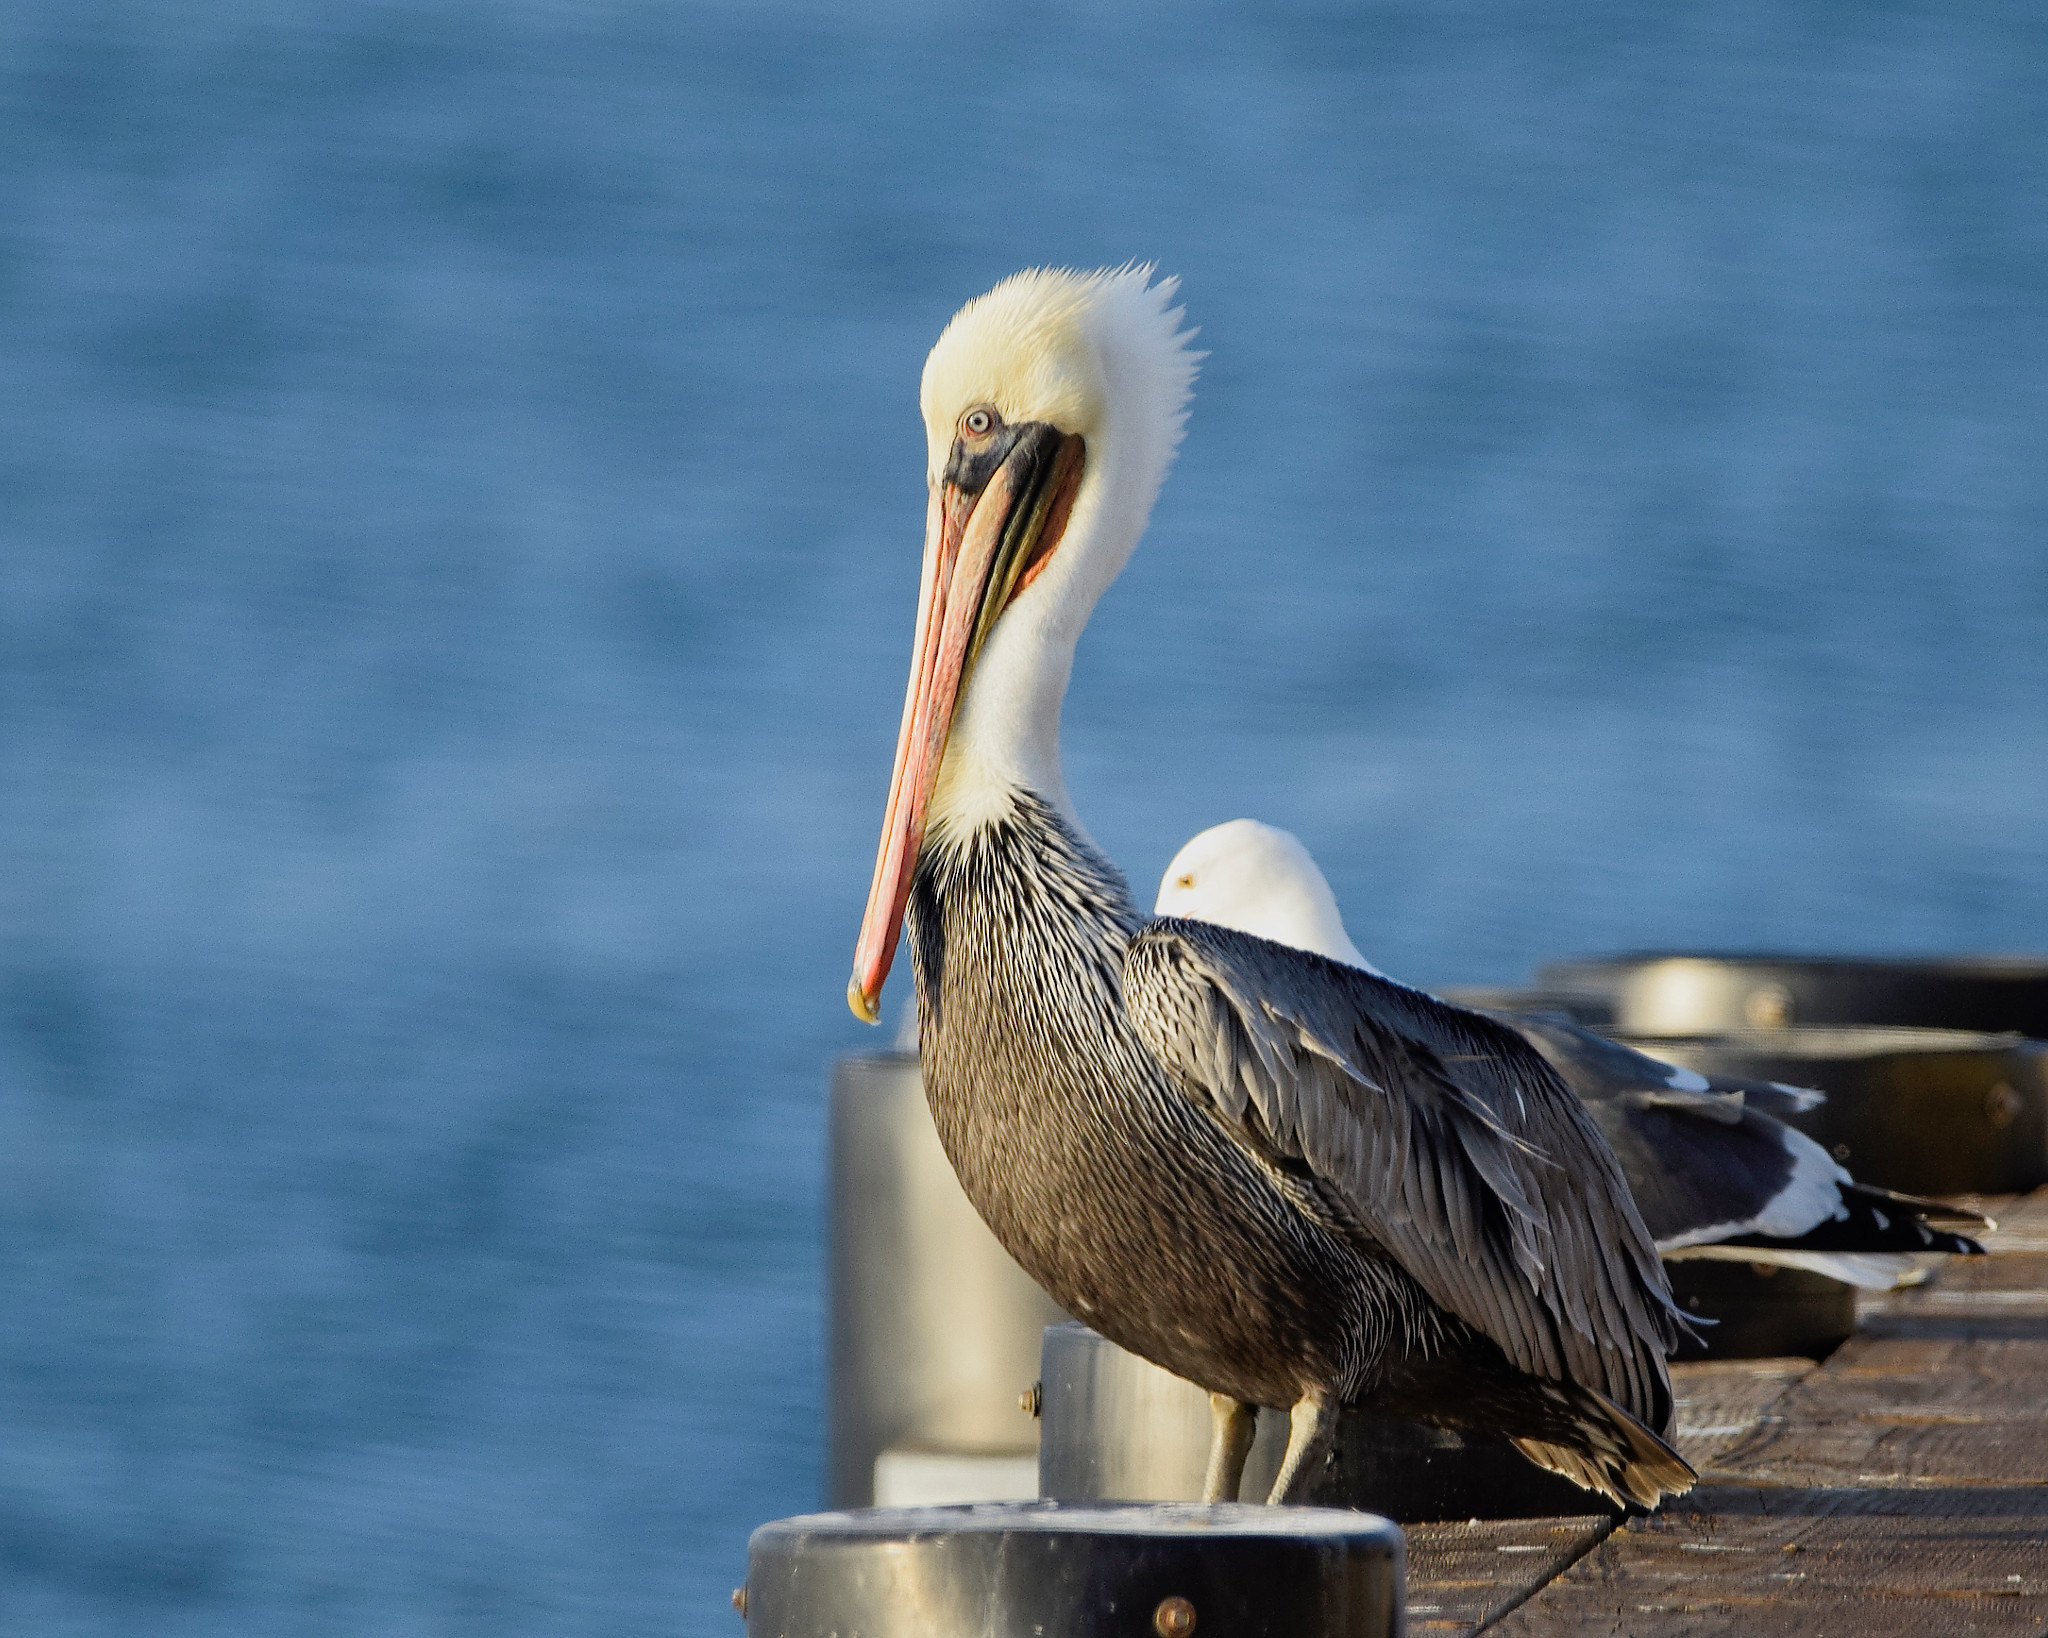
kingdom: Animalia
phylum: Chordata
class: Aves
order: Pelecaniformes
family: Pelecanidae
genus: Pelecanus
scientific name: Pelecanus occidentalis
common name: Brown pelican
